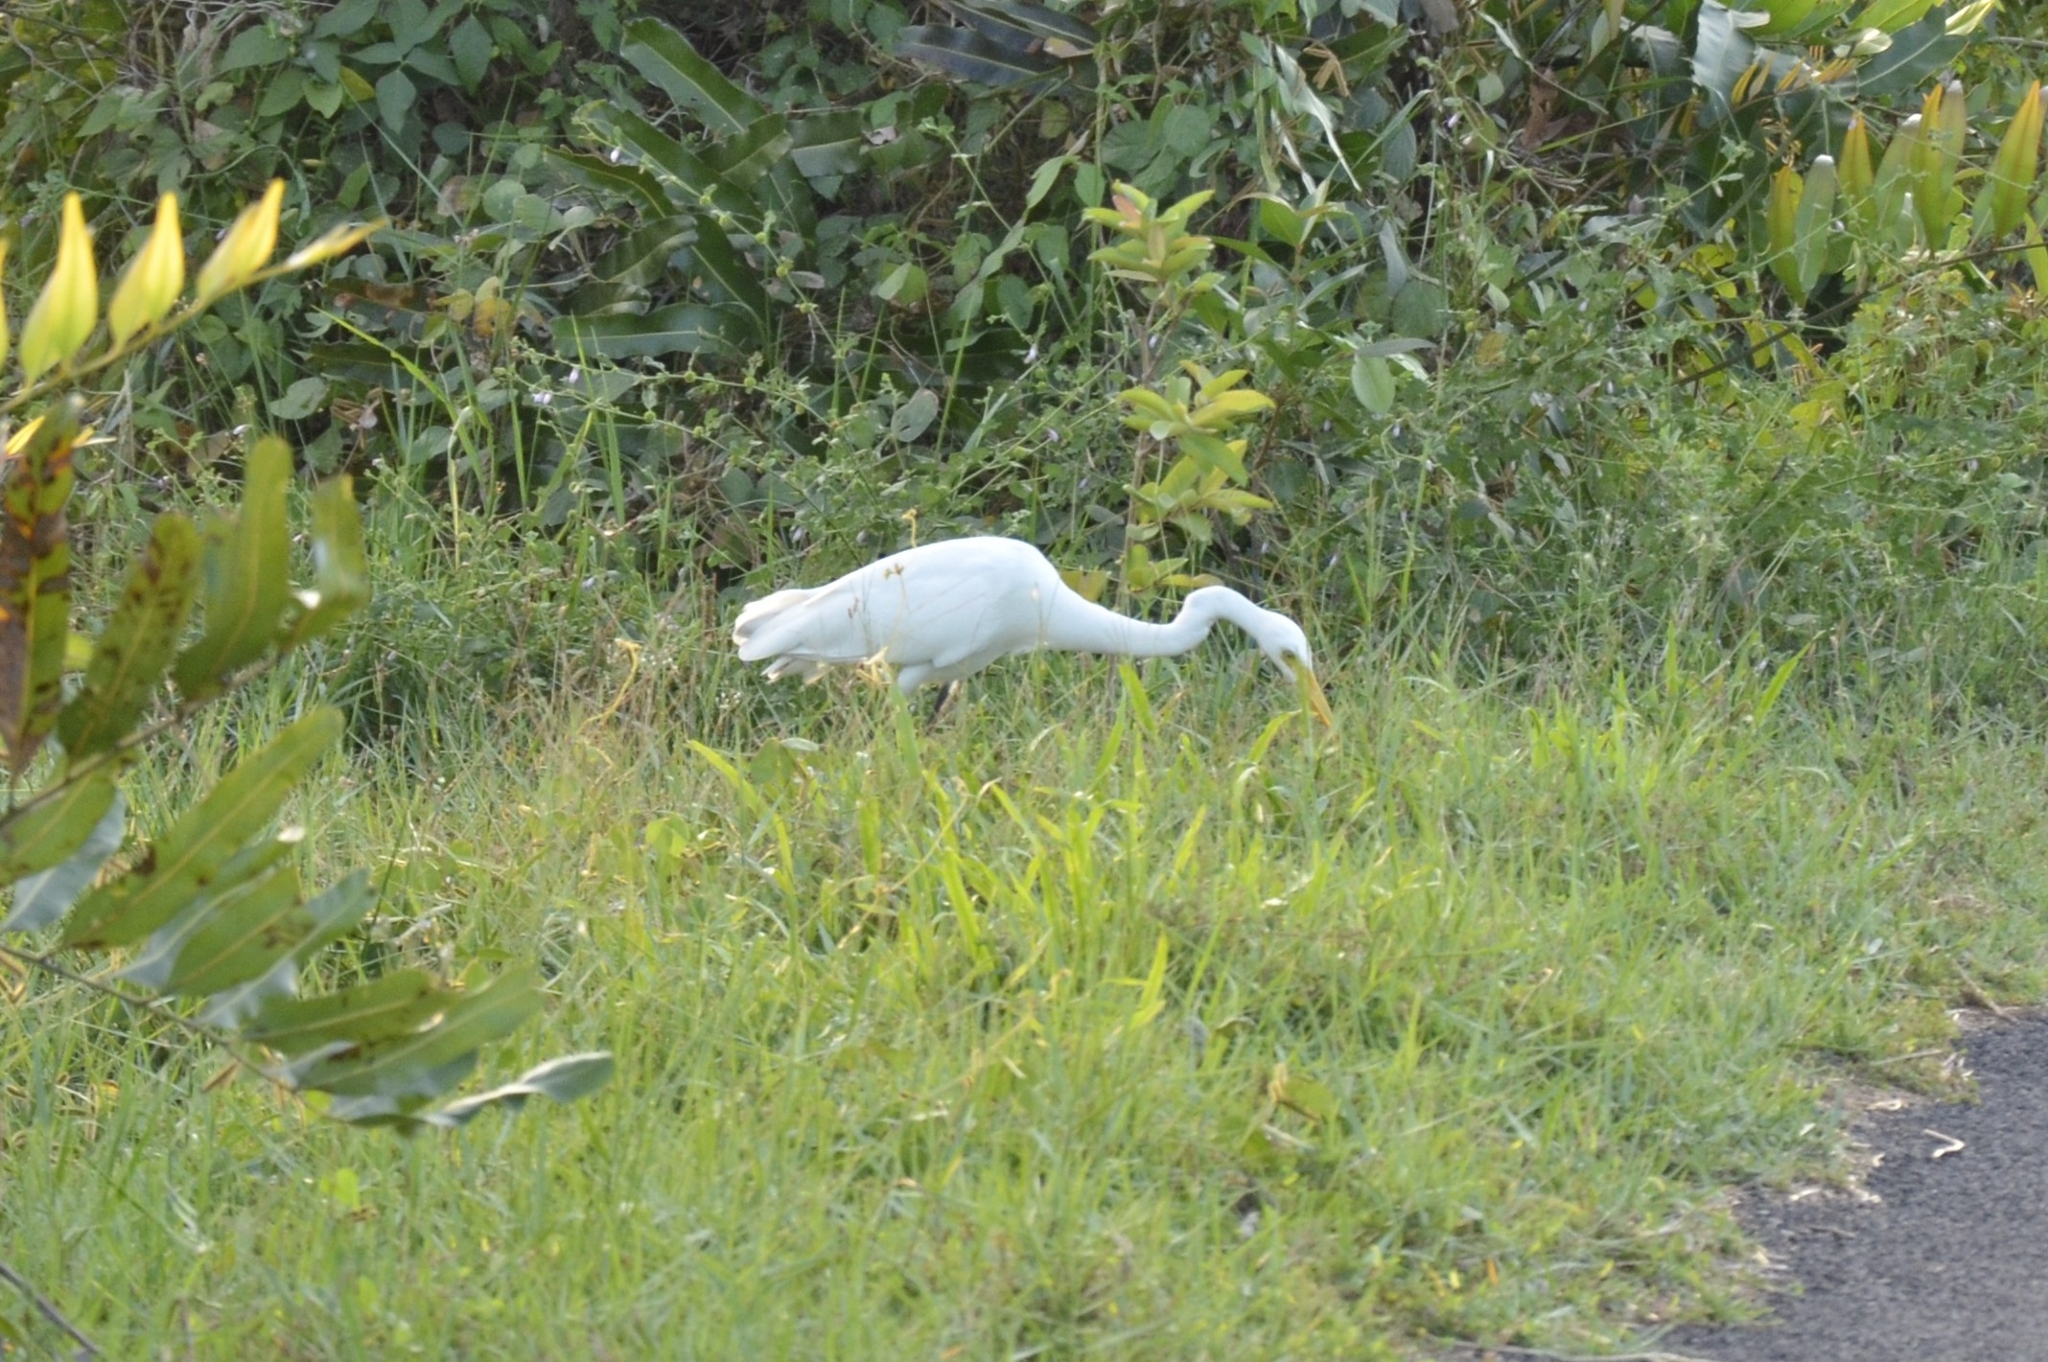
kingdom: Animalia
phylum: Chordata
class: Aves
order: Pelecaniformes
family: Ardeidae
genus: Egretta
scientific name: Egretta intermedia
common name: Intermediate egret
